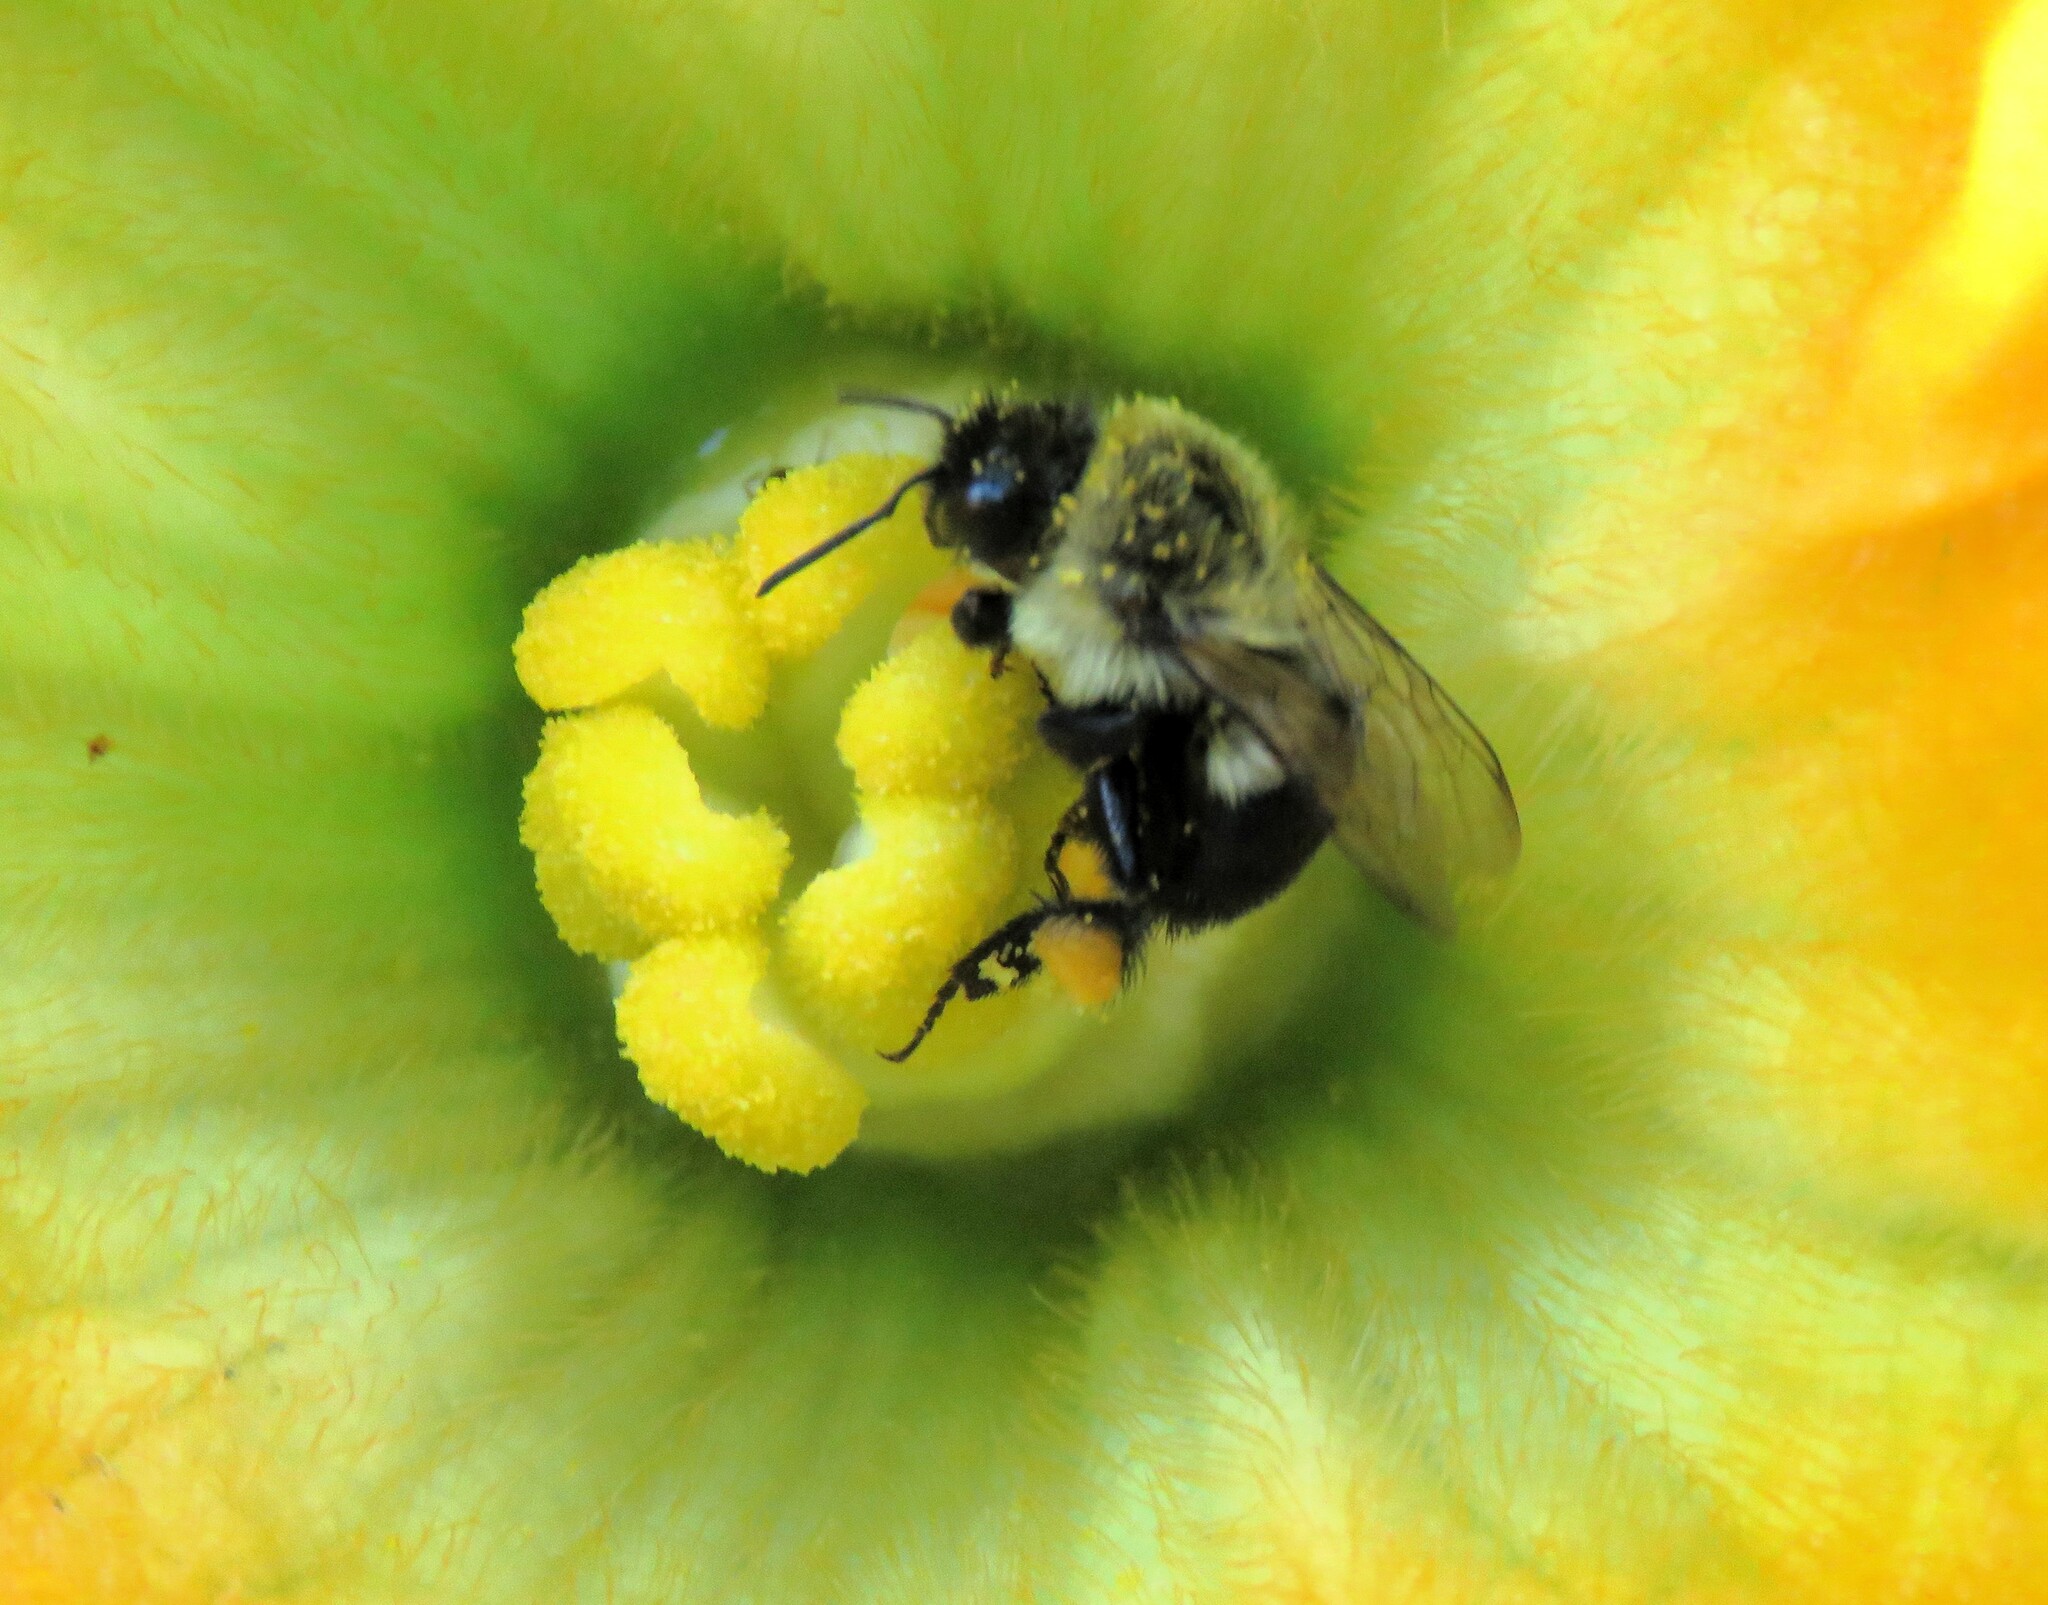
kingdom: Animalia
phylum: Arthropoda
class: Insecta
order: Hymenoptera
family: Apidae
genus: Bombus
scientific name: Bombus impatiens
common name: Common eastern bumble bee
